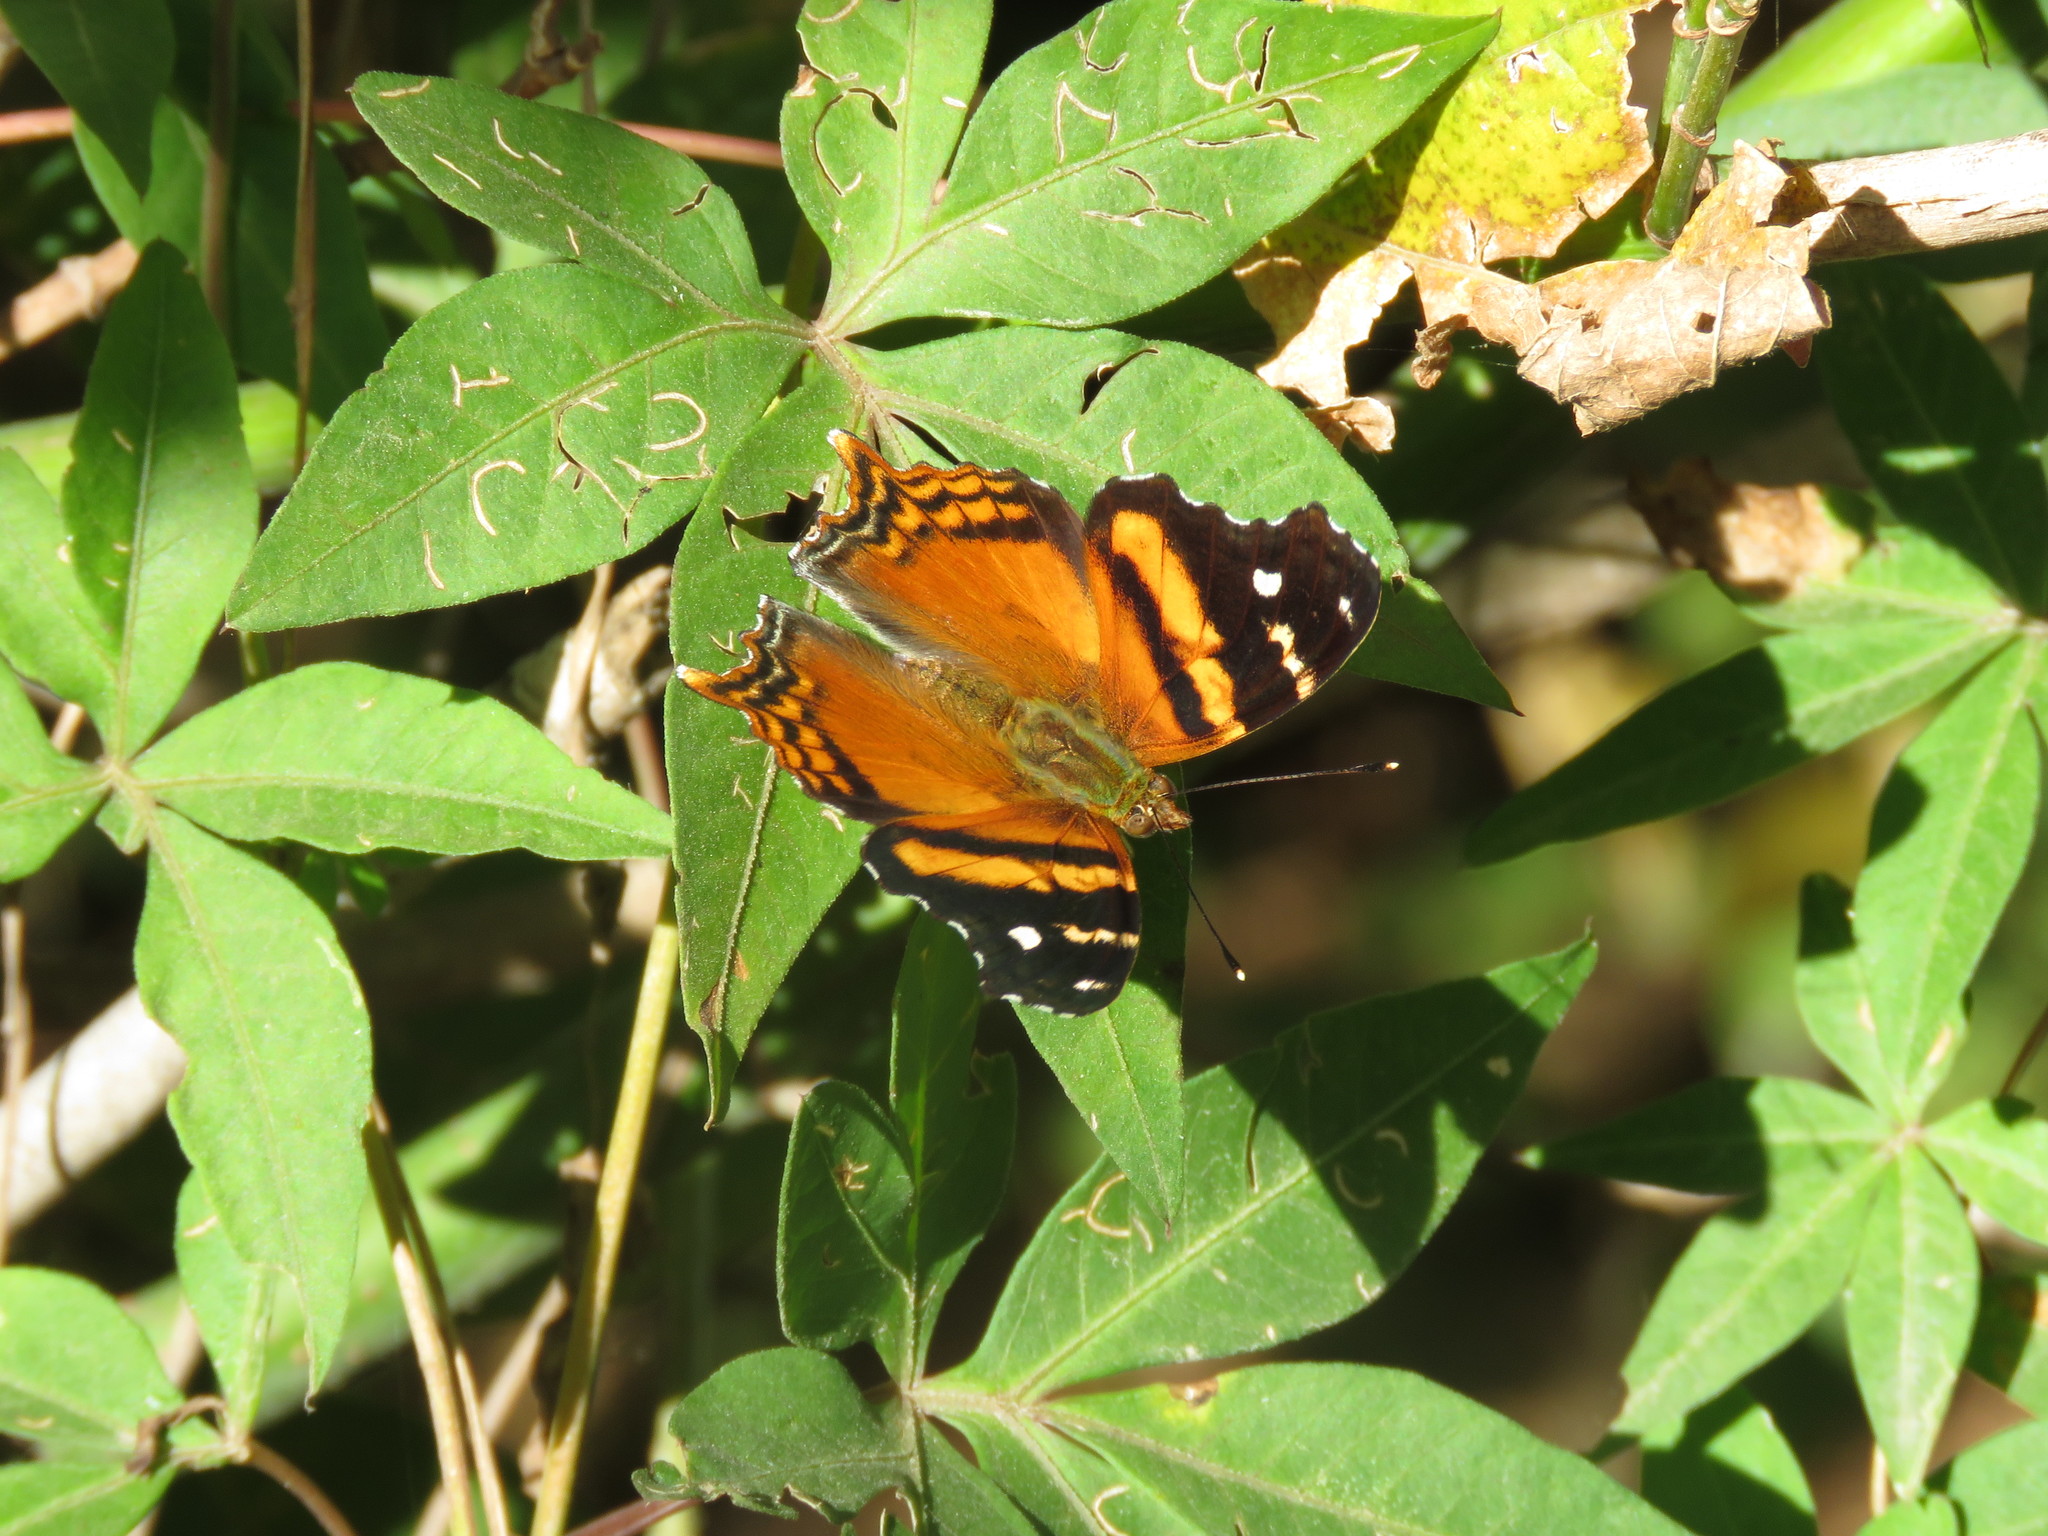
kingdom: Animalia
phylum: Arthropoda
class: Insecta
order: Lepidoptera
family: Nymphalidae
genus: Hypanartia
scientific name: Hypanartia bella
